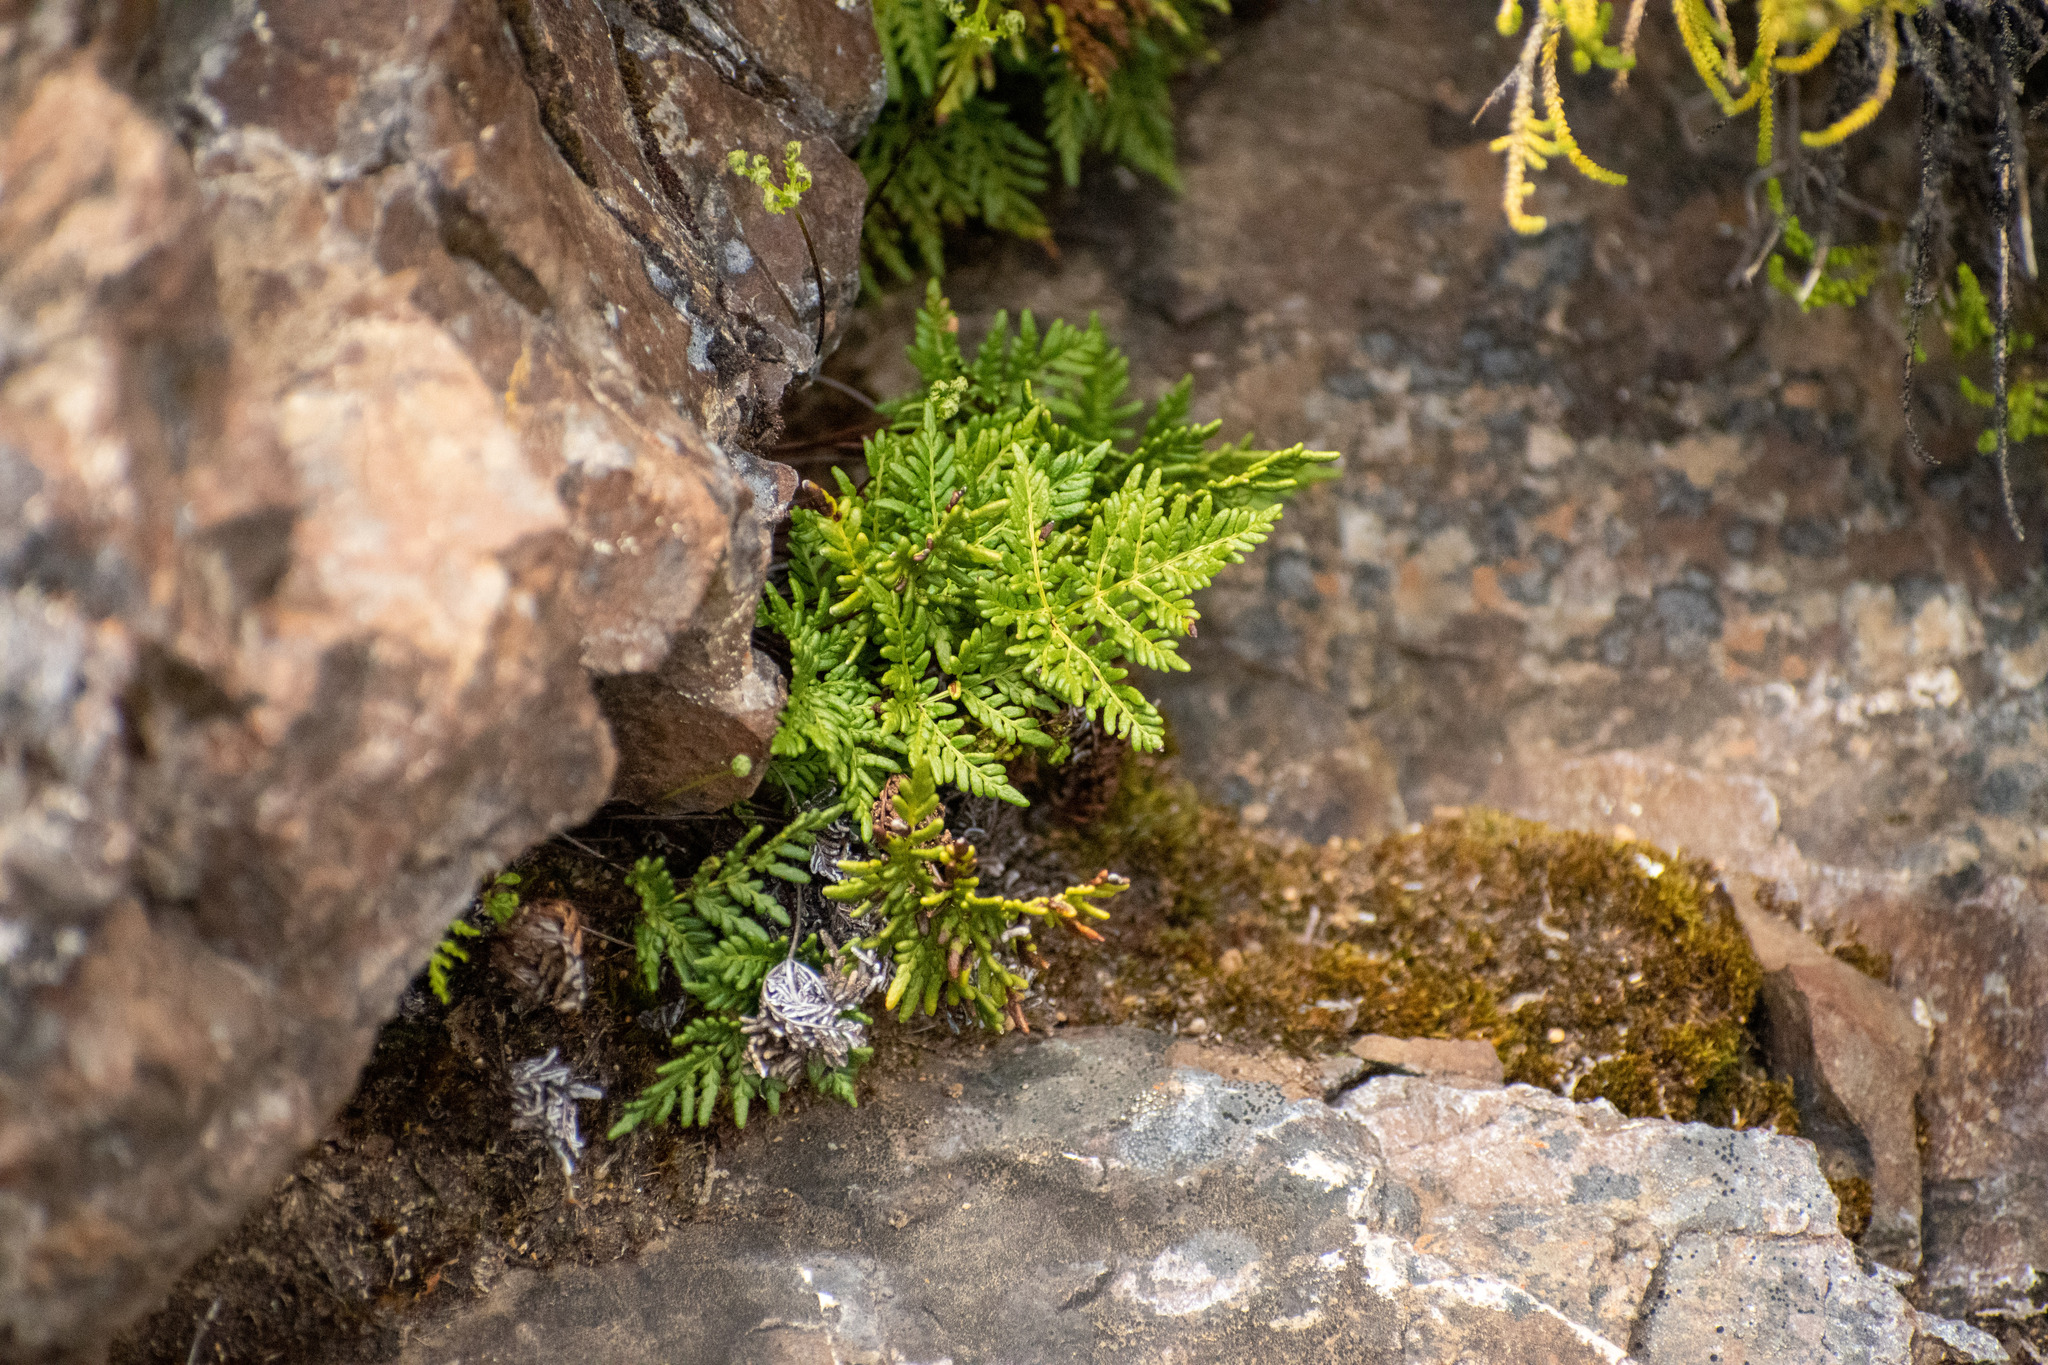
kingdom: Plantae
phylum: Tracheophyta
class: Polypodiopsida
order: Polypodiales
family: Pteridaceae
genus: Cheilanthes
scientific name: Cheilanthes glauca
